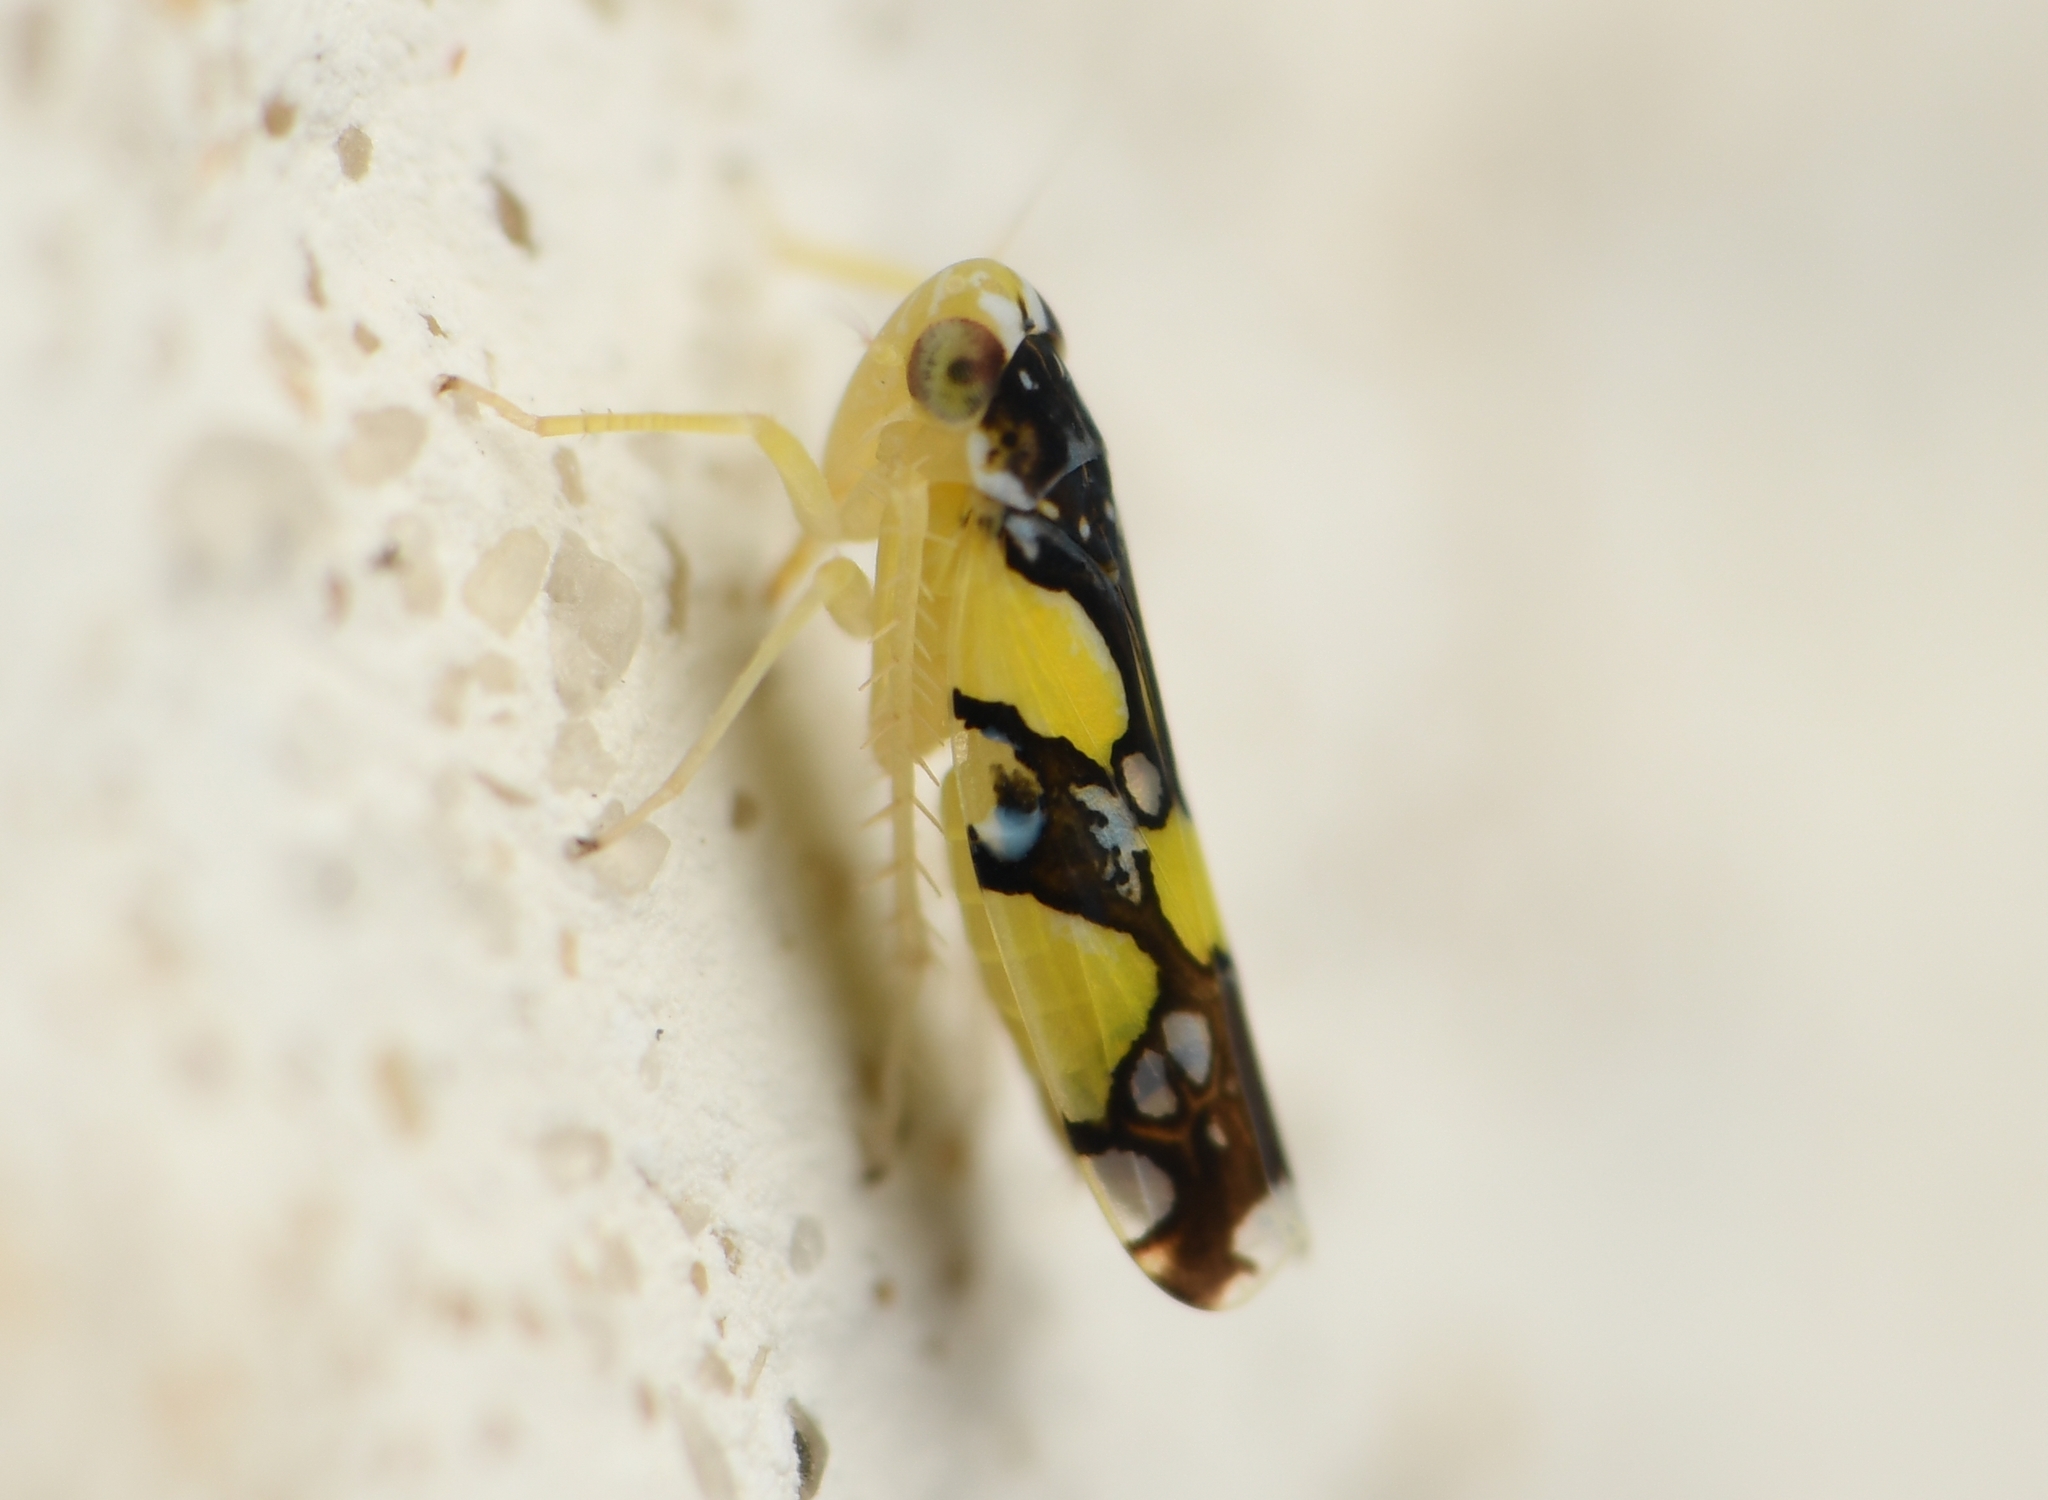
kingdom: Animalia
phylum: Arthropoda
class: Insecta
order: Hemiptera
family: Cicadellidae
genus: Protalebrella
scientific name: Protalebrella brasiliensis
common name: Brasilian leafhopper
